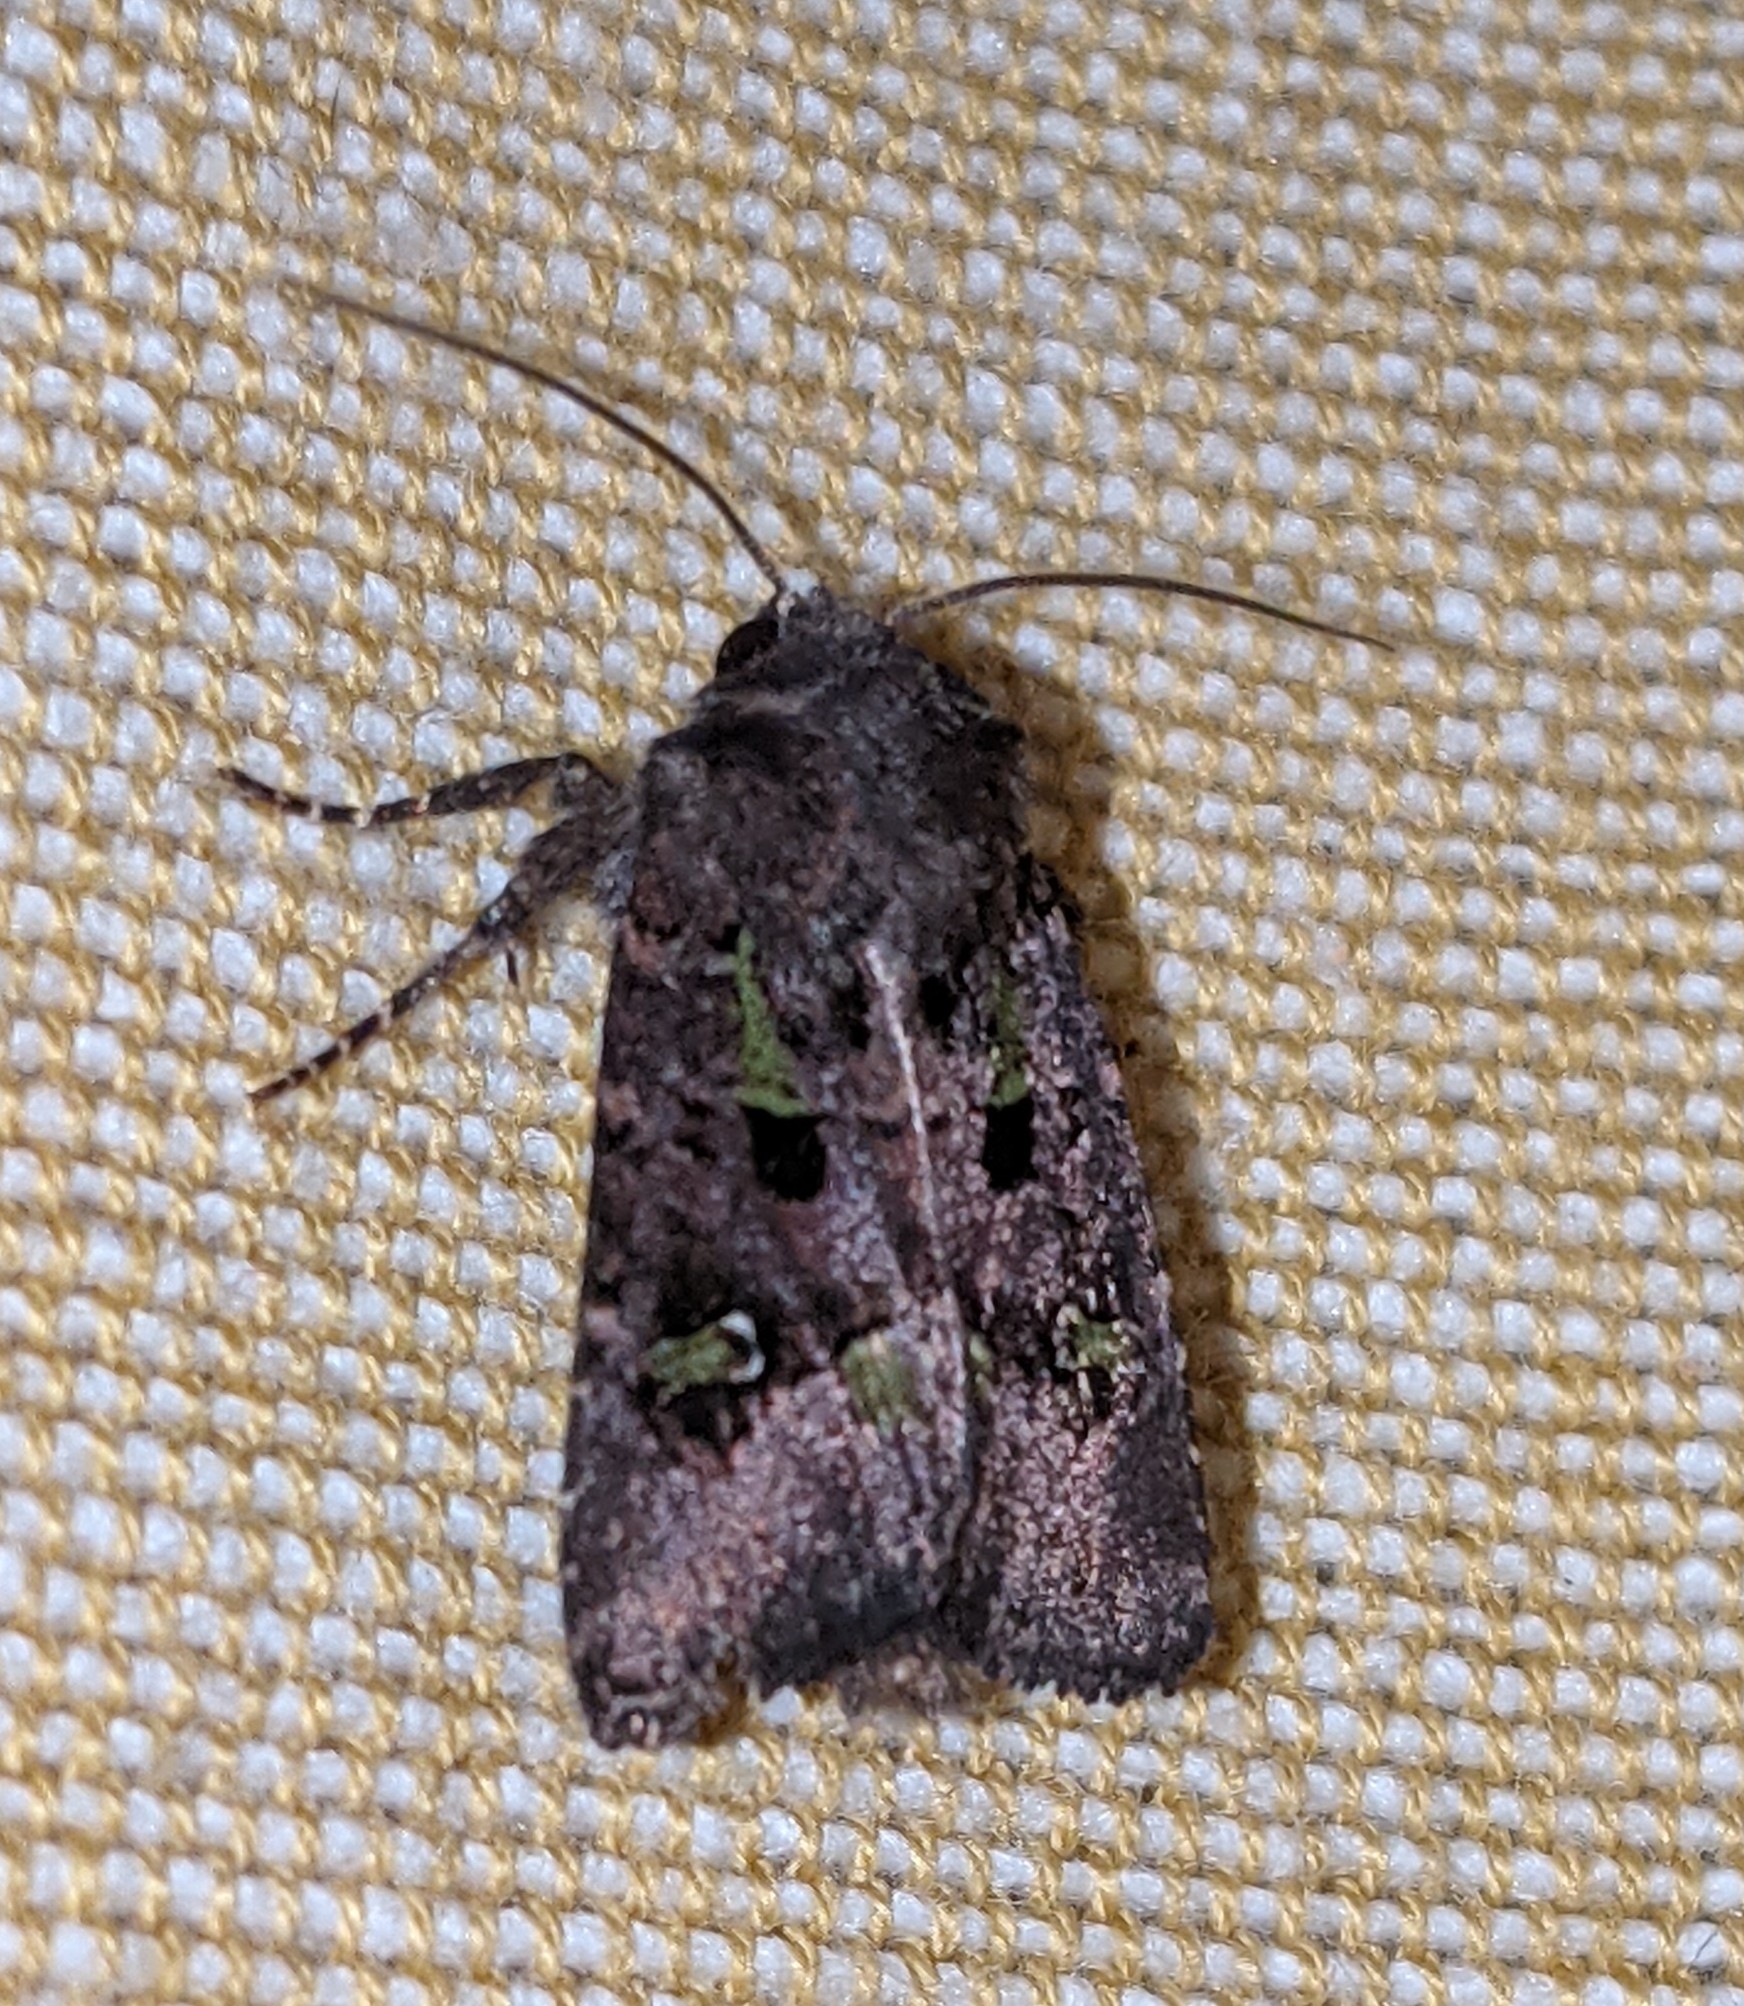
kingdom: Animalia
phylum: Arthropoda
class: Insecta
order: Lepidoptera
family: Noctuidae
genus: Lacinipolia
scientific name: Lacinipolia renigera
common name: Kidney-spotted minor
